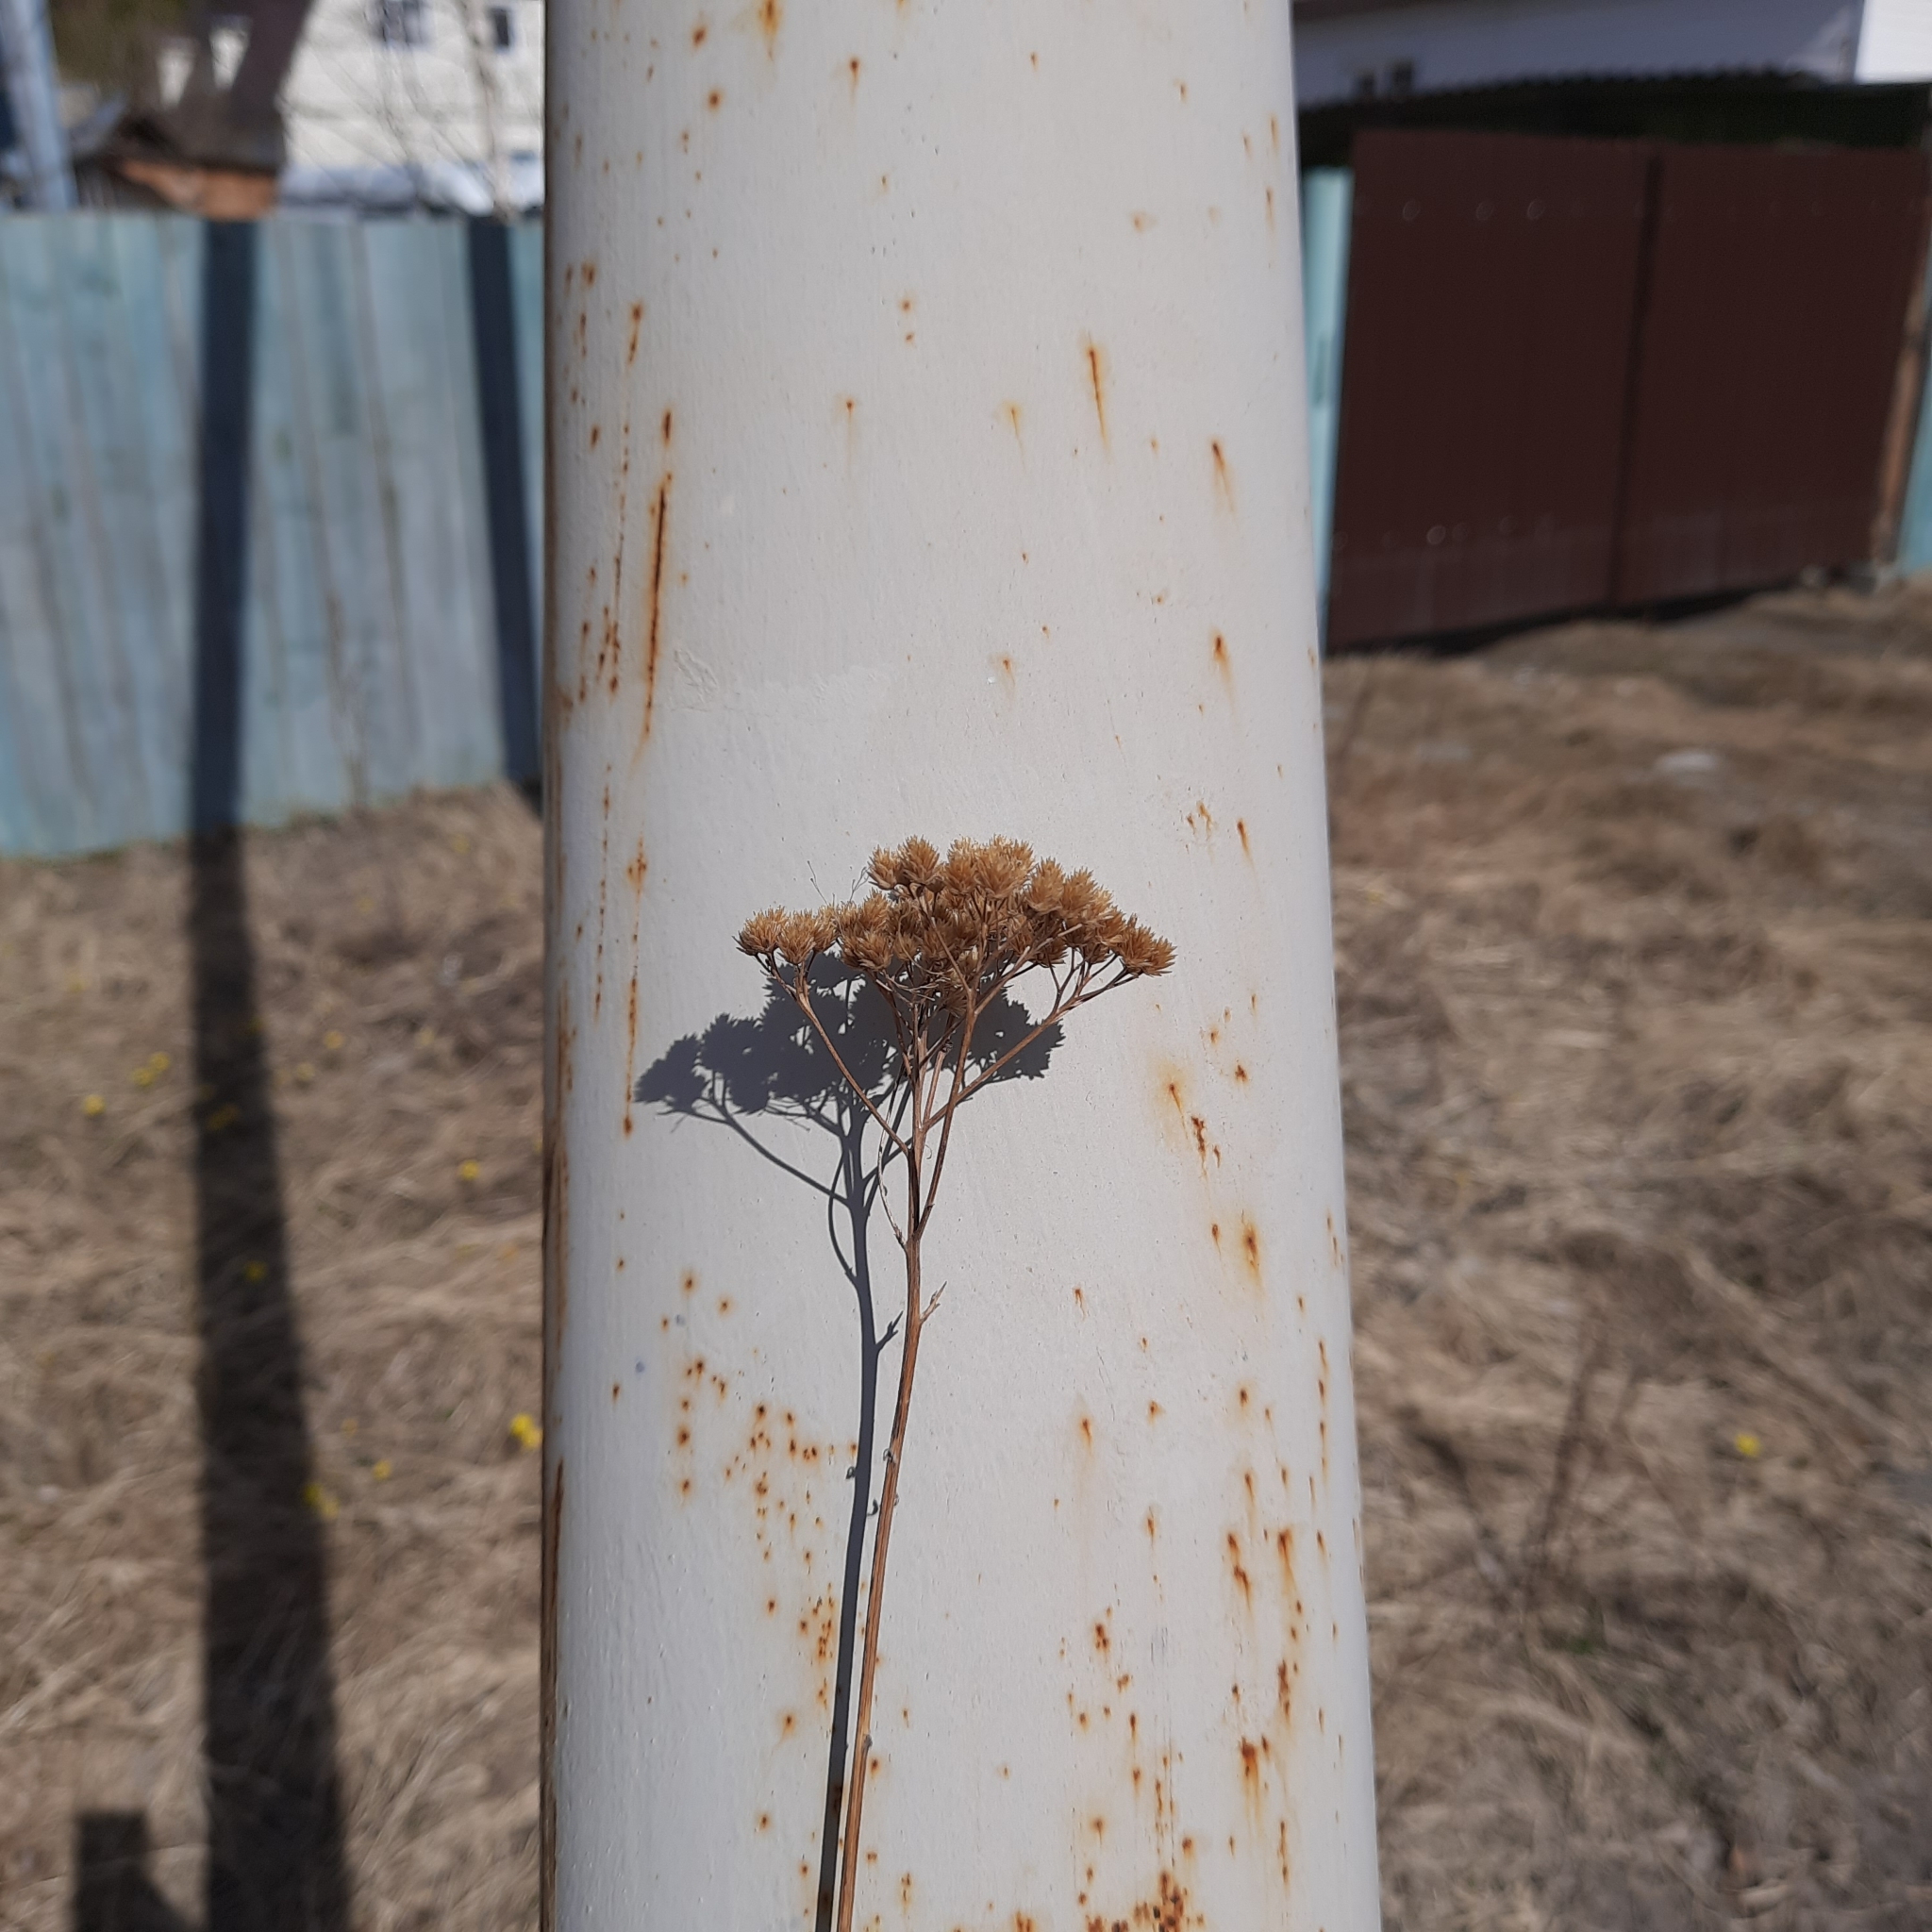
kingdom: Plantae
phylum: Tracheophyta
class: Magnoliopsida
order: Asterales
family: Asteraceae
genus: Achillea
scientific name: Achillea millefolium
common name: Yarrow
